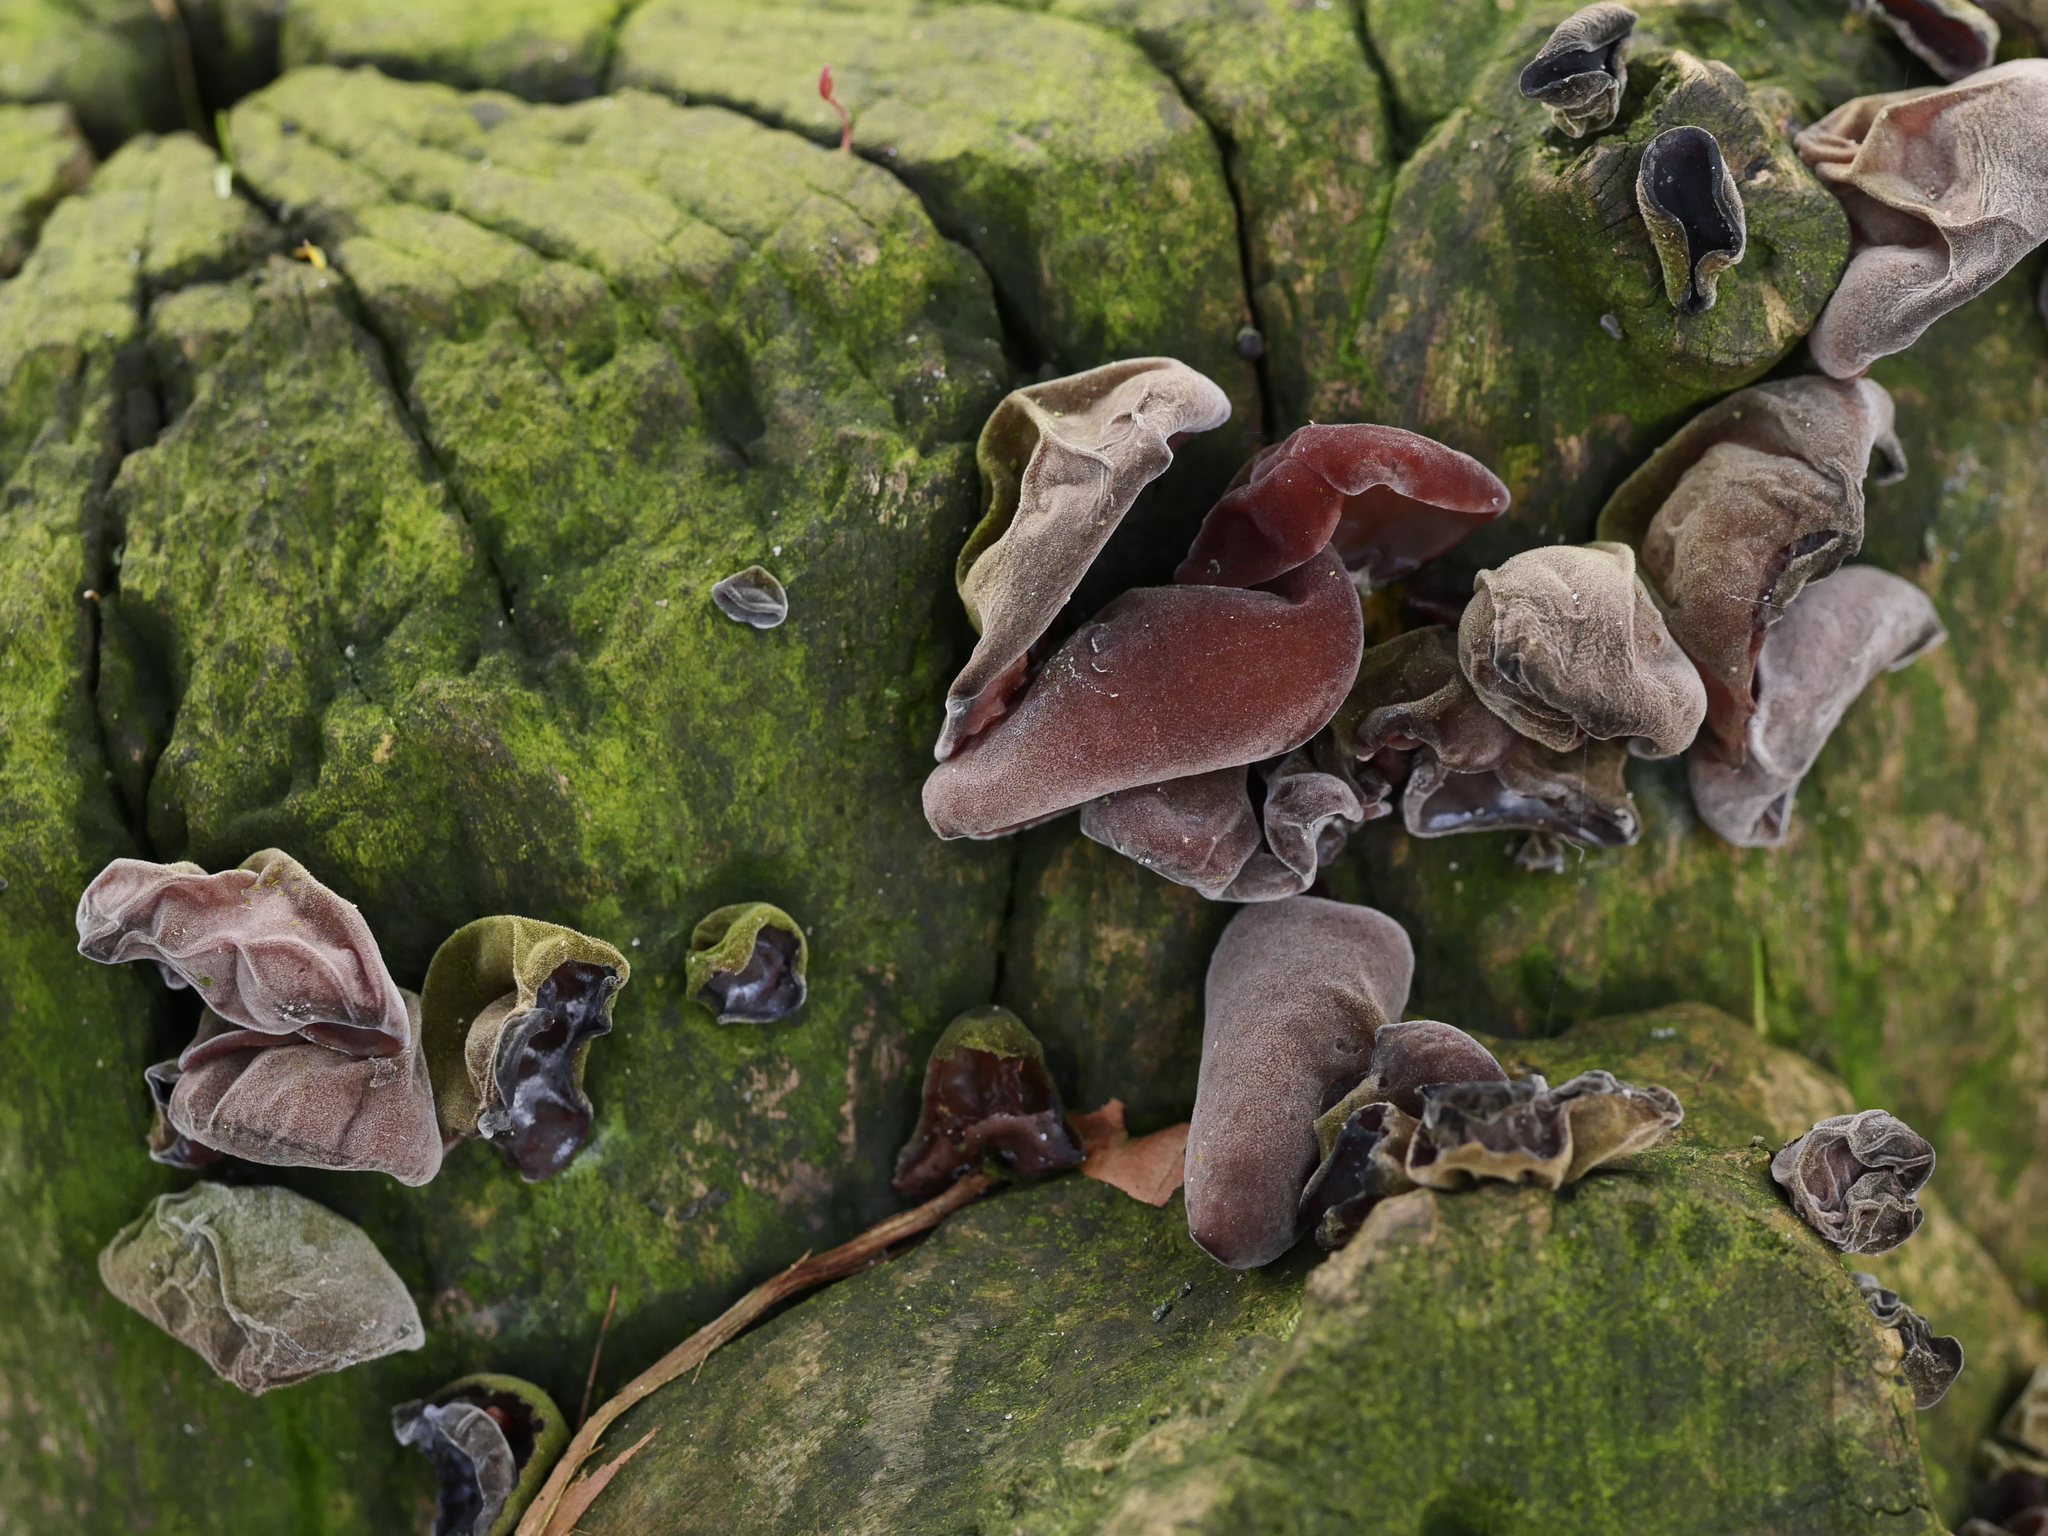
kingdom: Fungi
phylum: Basidiomycota
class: Agaricomycetes
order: Auriculariales
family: Auriculariaceae
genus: Auricularia
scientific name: Auricularia auricula-judae
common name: Jelly ear
